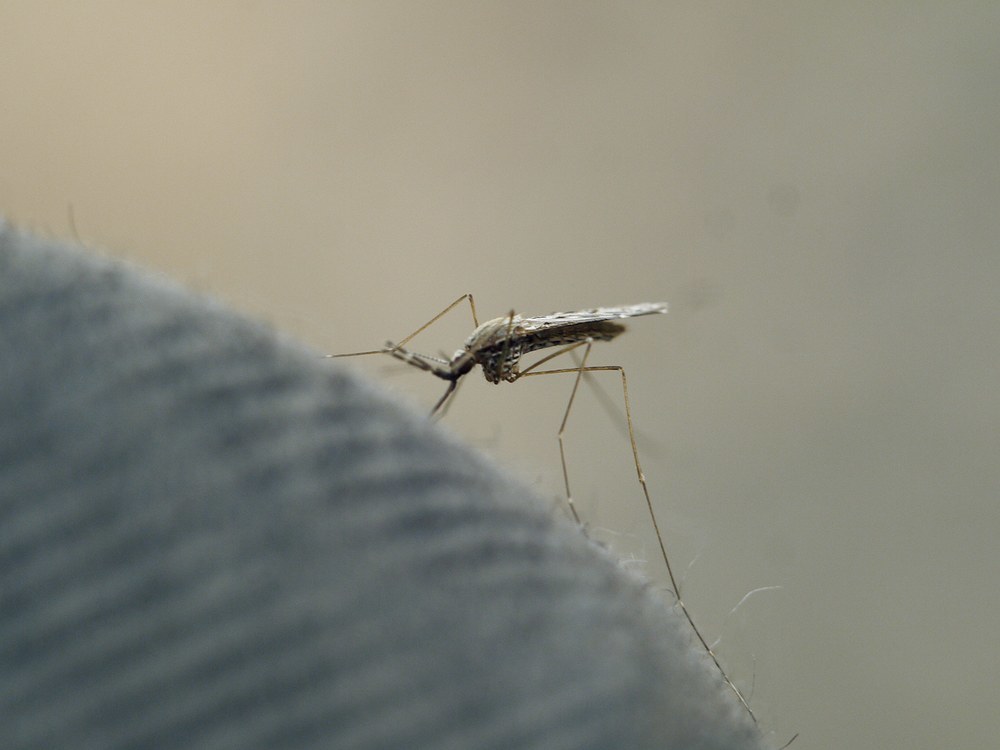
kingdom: Animalia
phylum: Arthropoda
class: Insecta
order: Diptera
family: Culicidae
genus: Anopheles
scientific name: Anopheles hyrcanus
